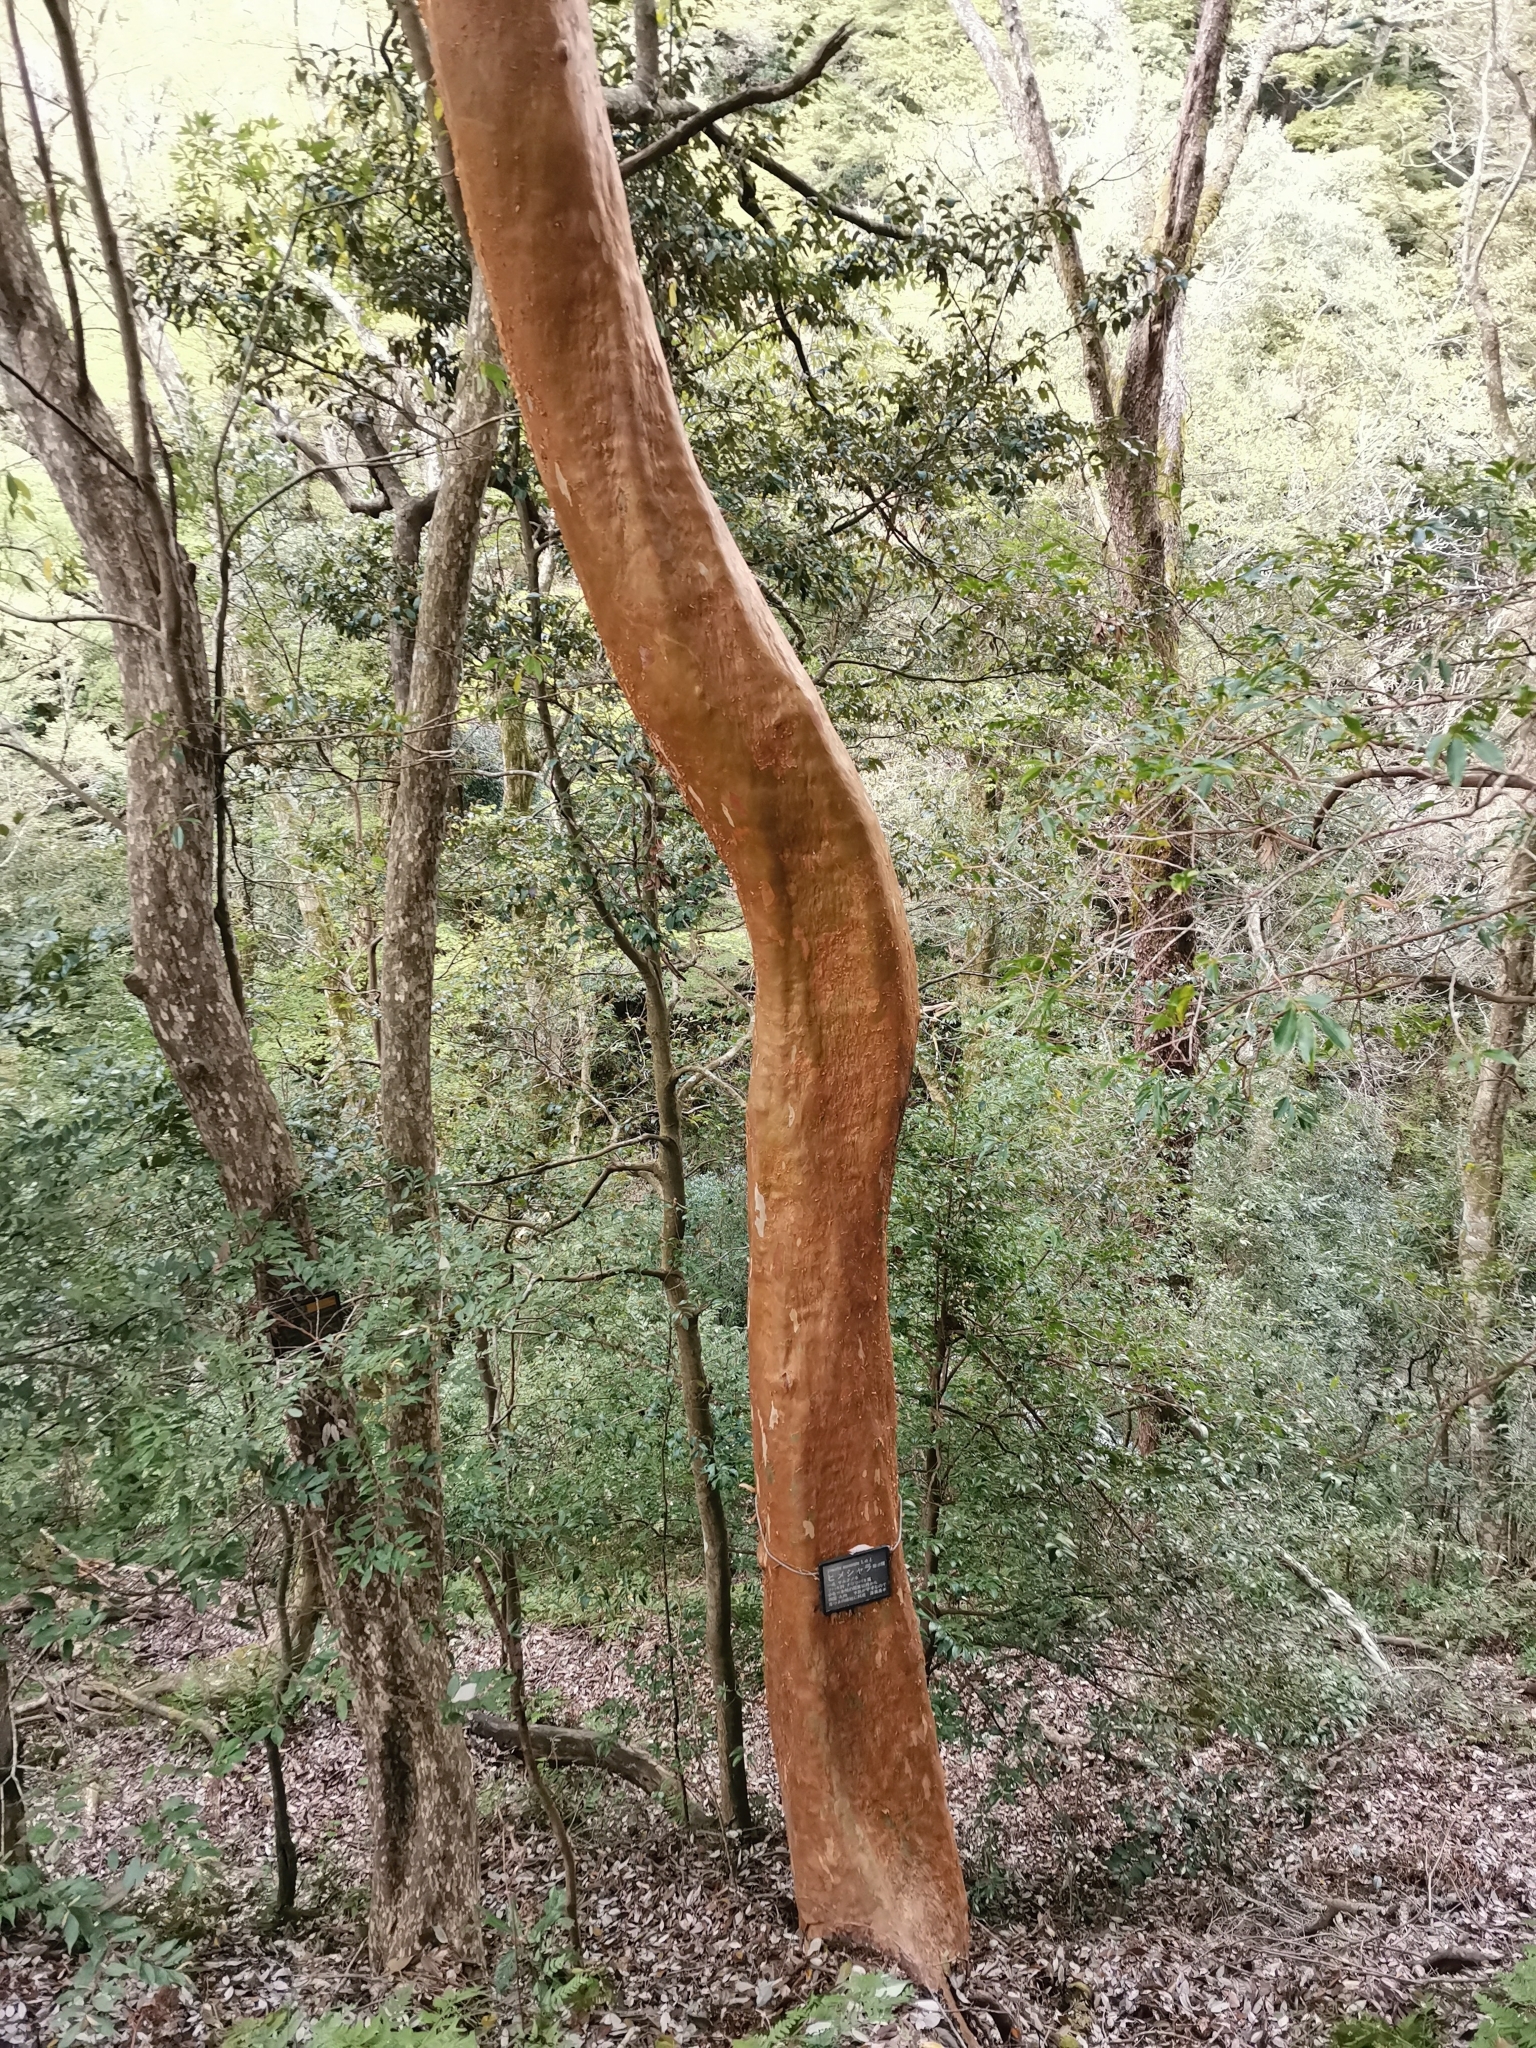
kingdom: Plantae
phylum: Tracheophyta
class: Magnoliopsida
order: Ericales
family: Theaceae
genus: Stewartia
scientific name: Stewartia monadelpha
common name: Tall stewartia
